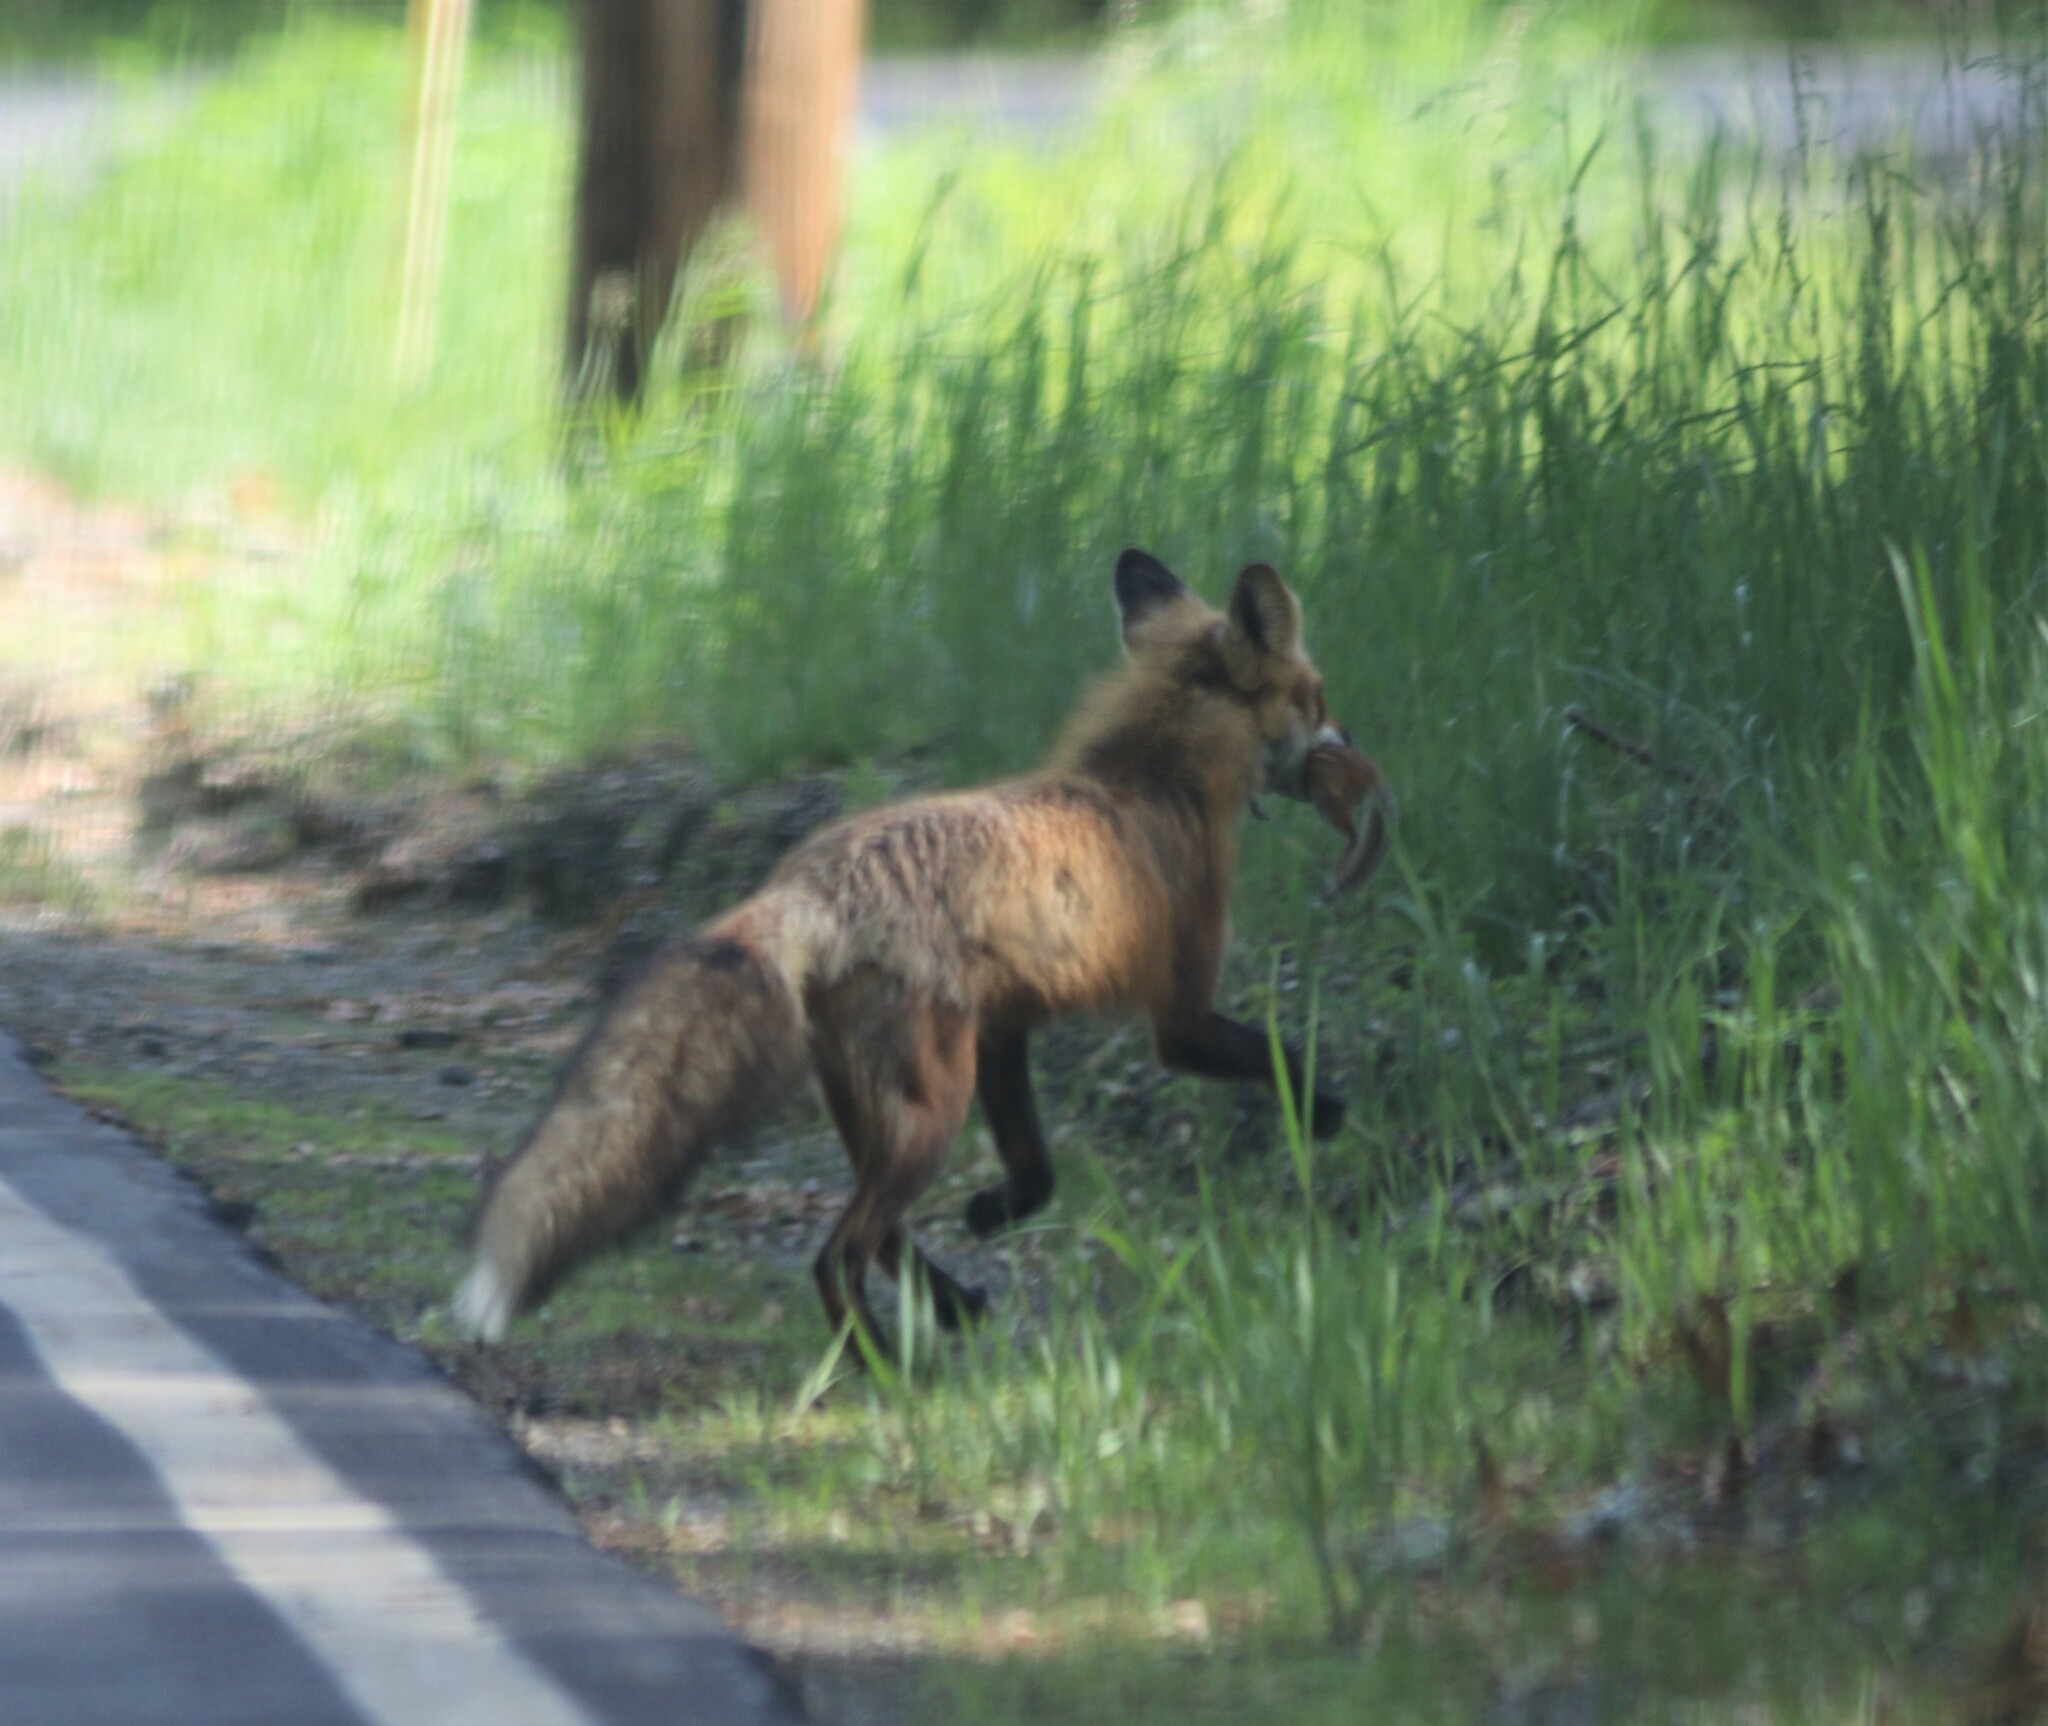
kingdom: Animalia
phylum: Chordata
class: Mammalia
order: Rodentia
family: Sciuridae
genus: Tamias
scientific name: Tamias striatus
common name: Eastern chipmunk
